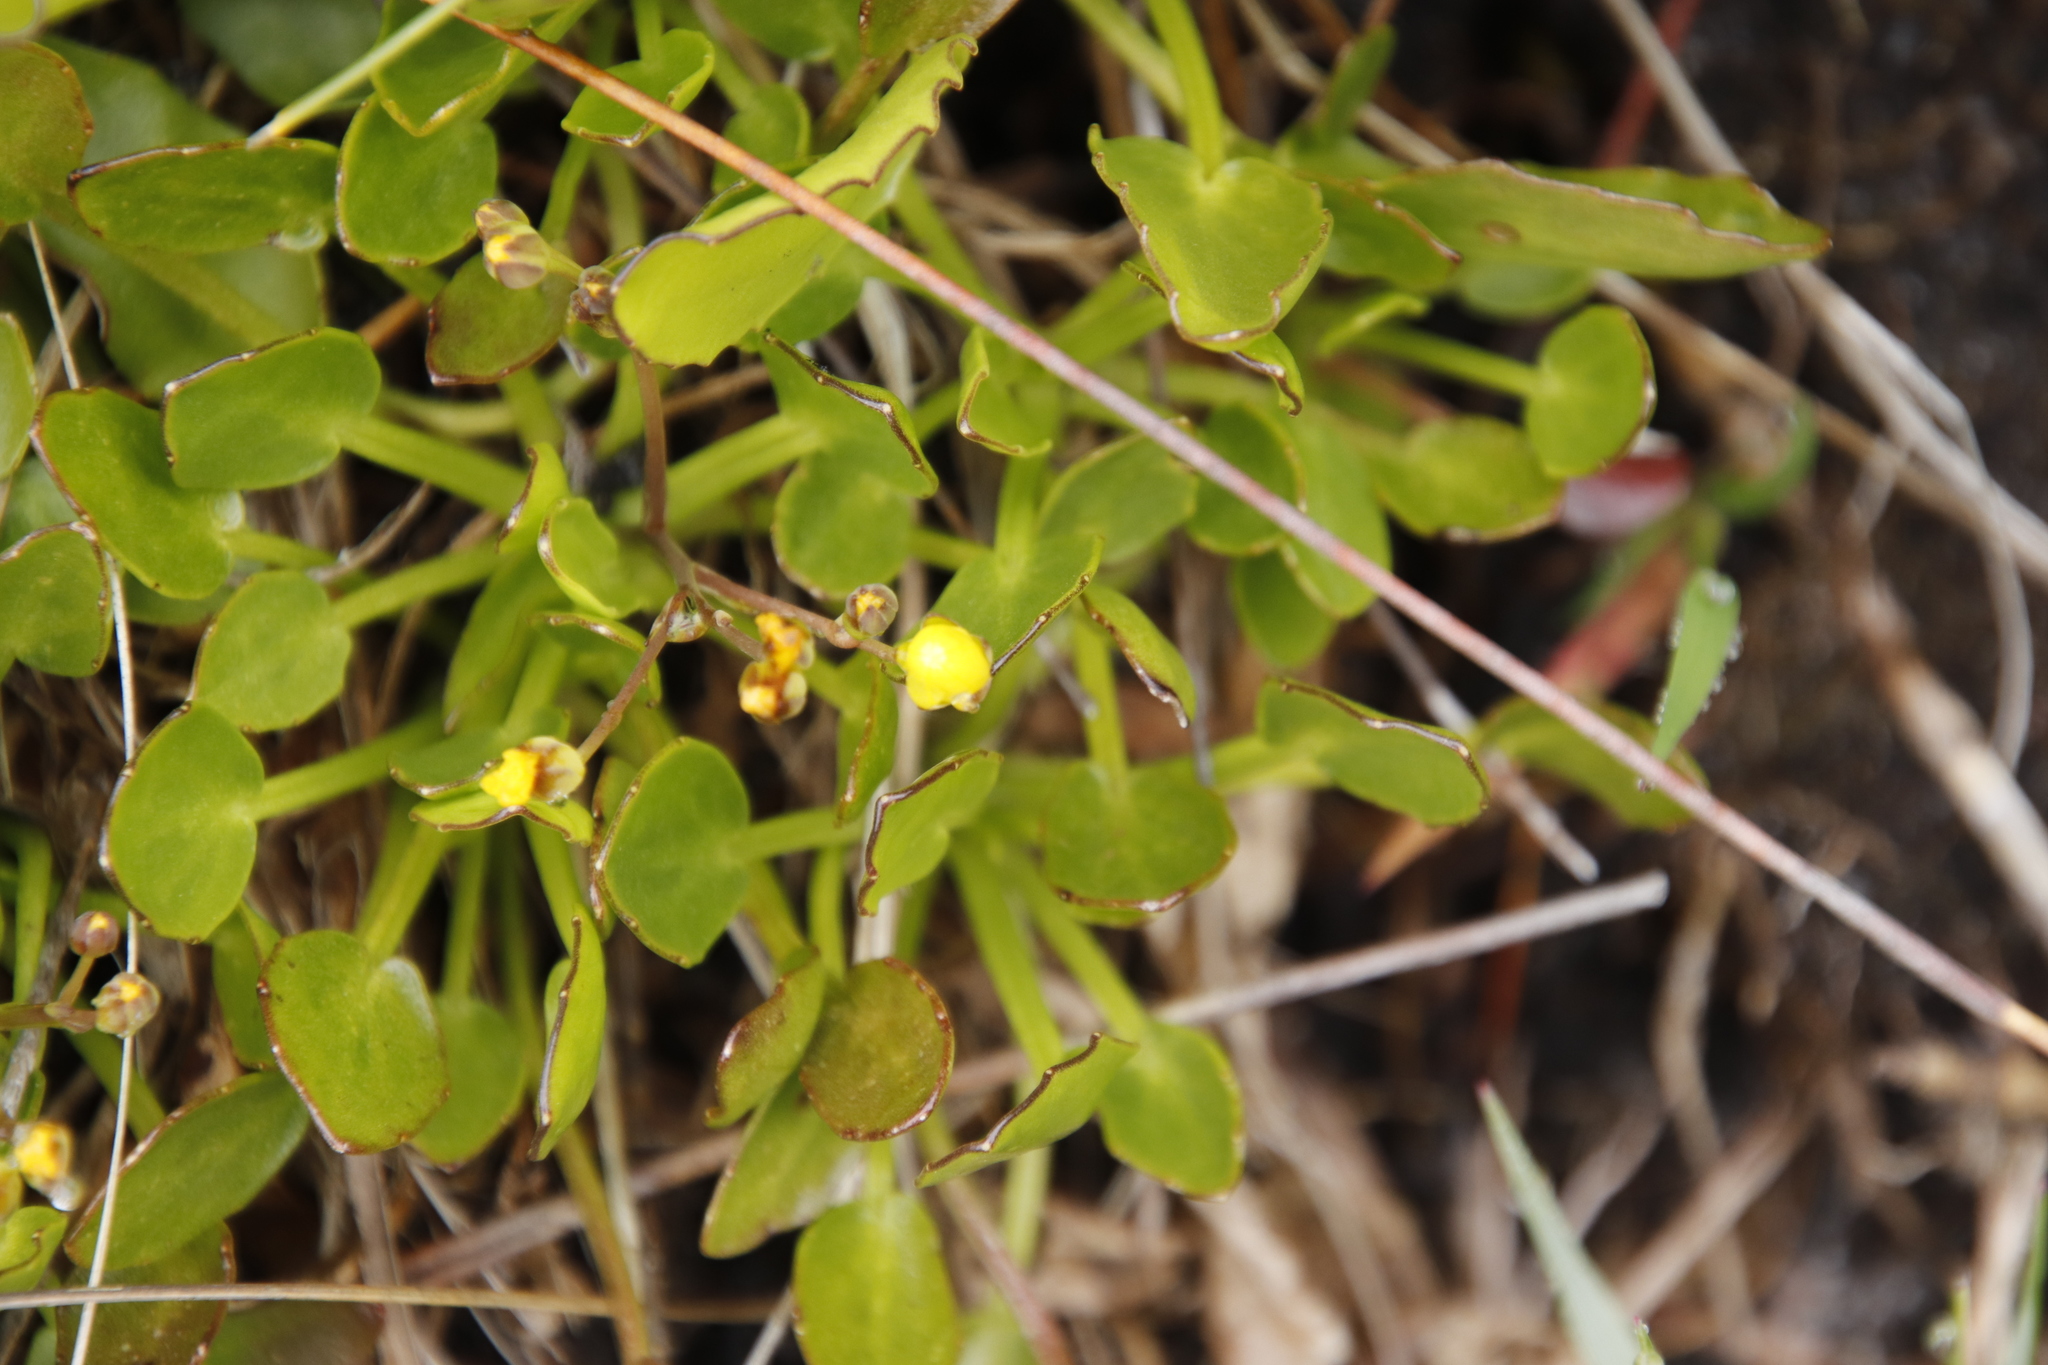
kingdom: Plantae
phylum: Tracheophyta
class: Magnoliopsida
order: Asterales
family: Menyanthaceae
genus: Villarsia
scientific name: Villarsia manningiana
